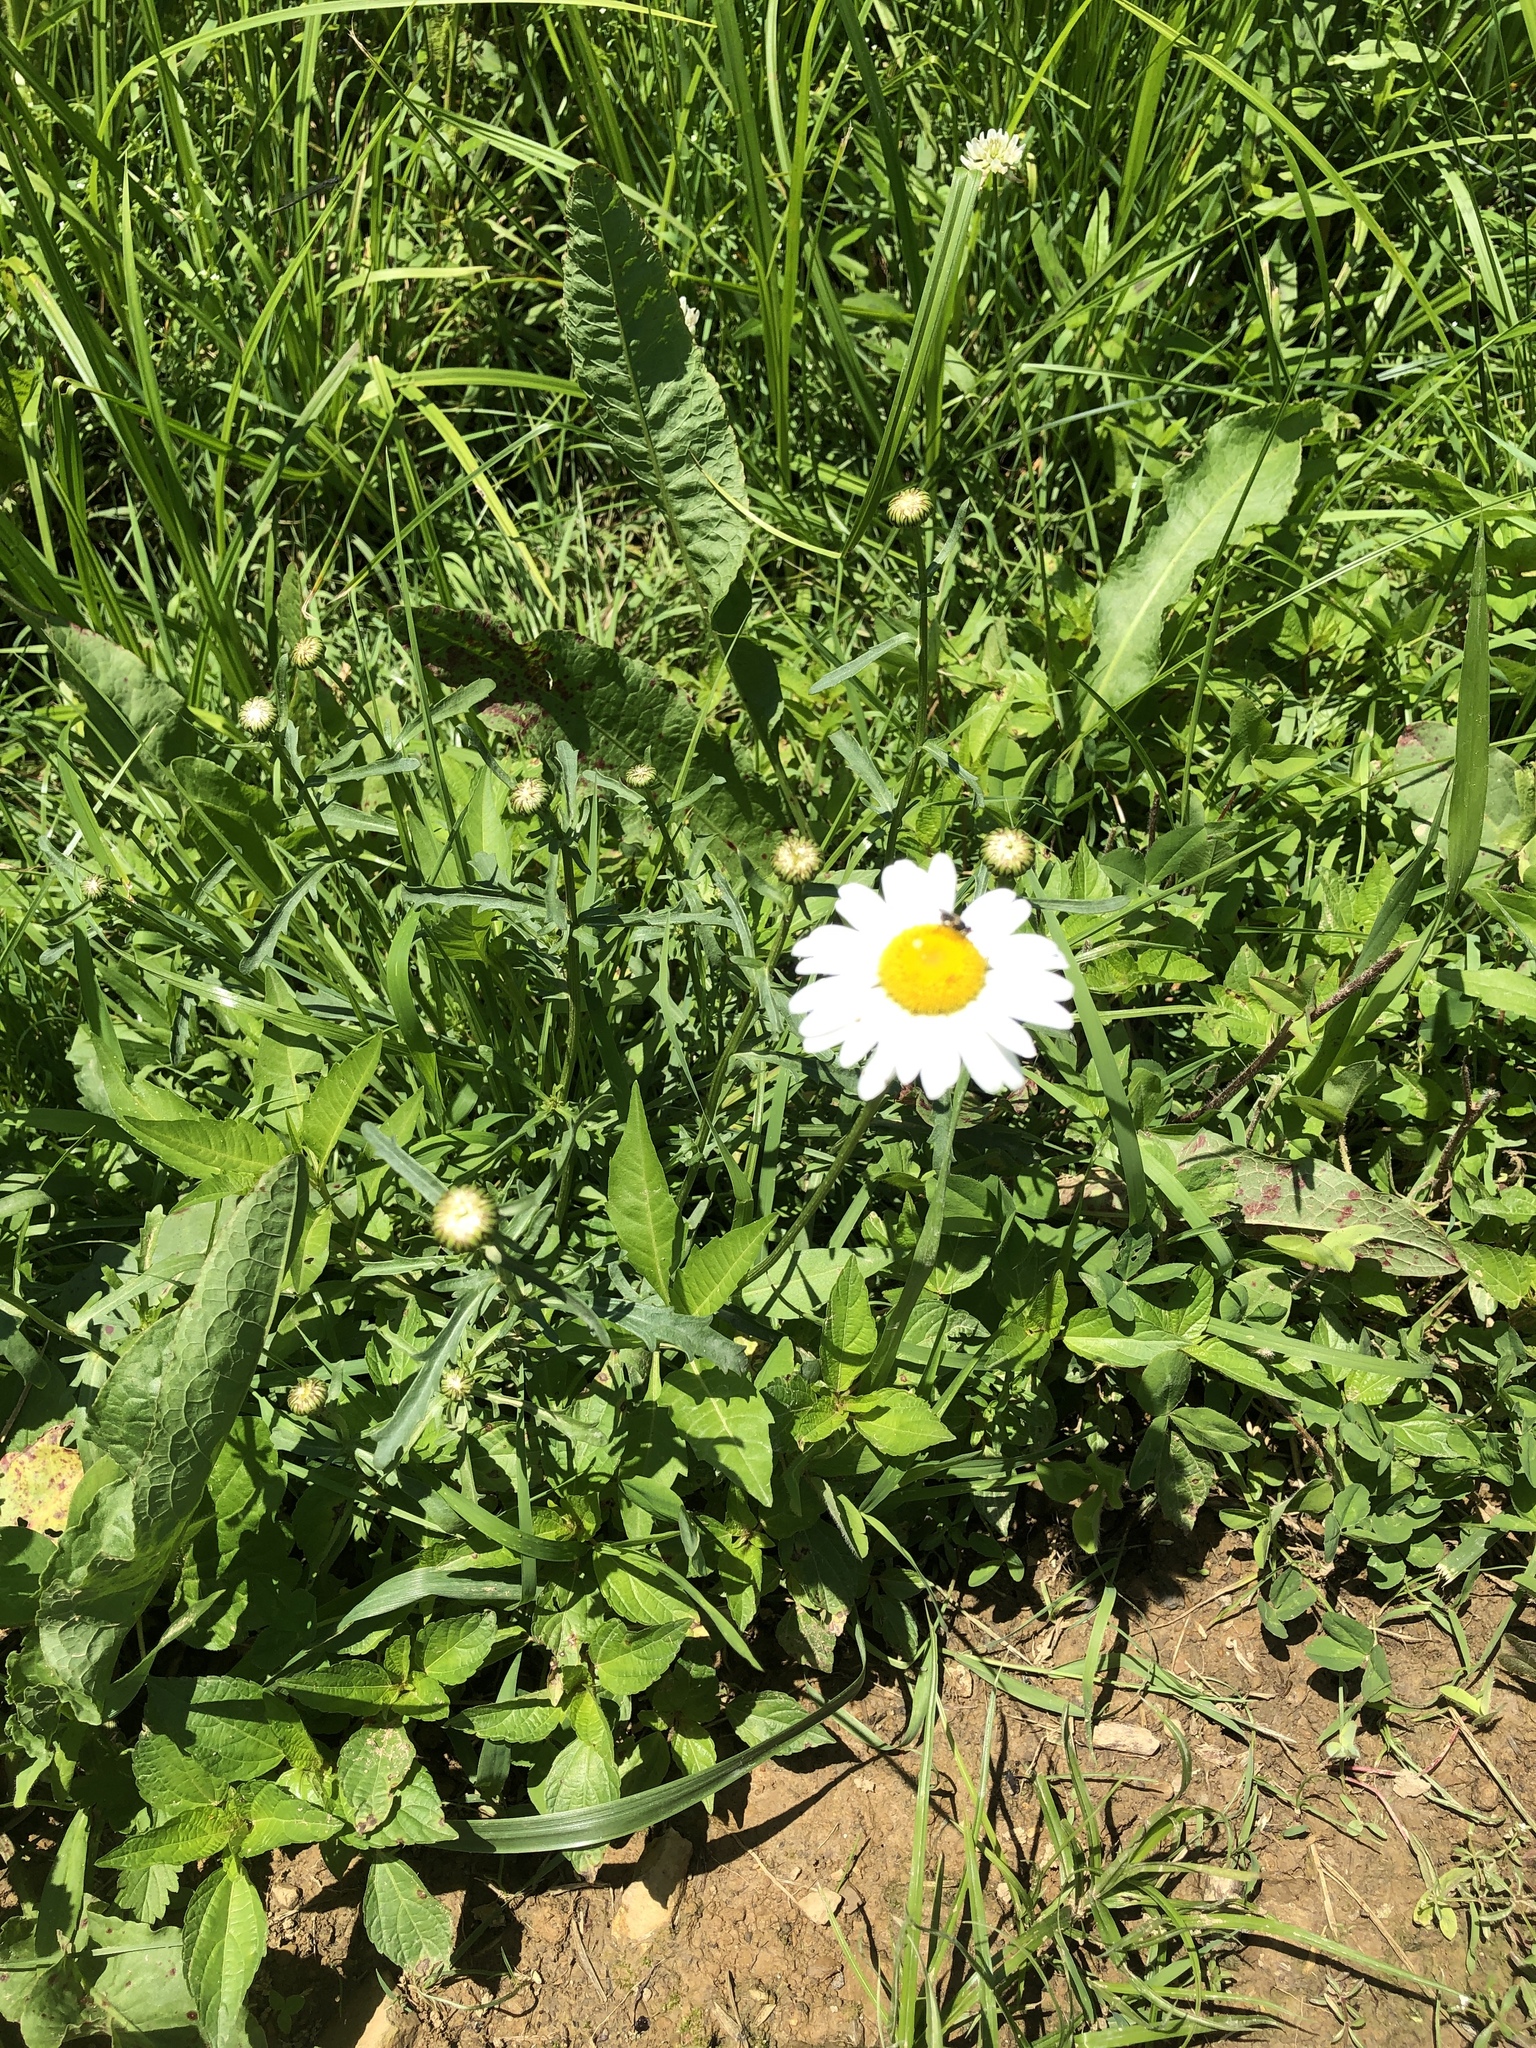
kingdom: Plantae
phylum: Tracheophyta
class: Magnoliopsida
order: Asterales
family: Asteraceae
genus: Leucanthemum
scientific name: Leucanthemum vulgare
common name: Oxeye daisy
